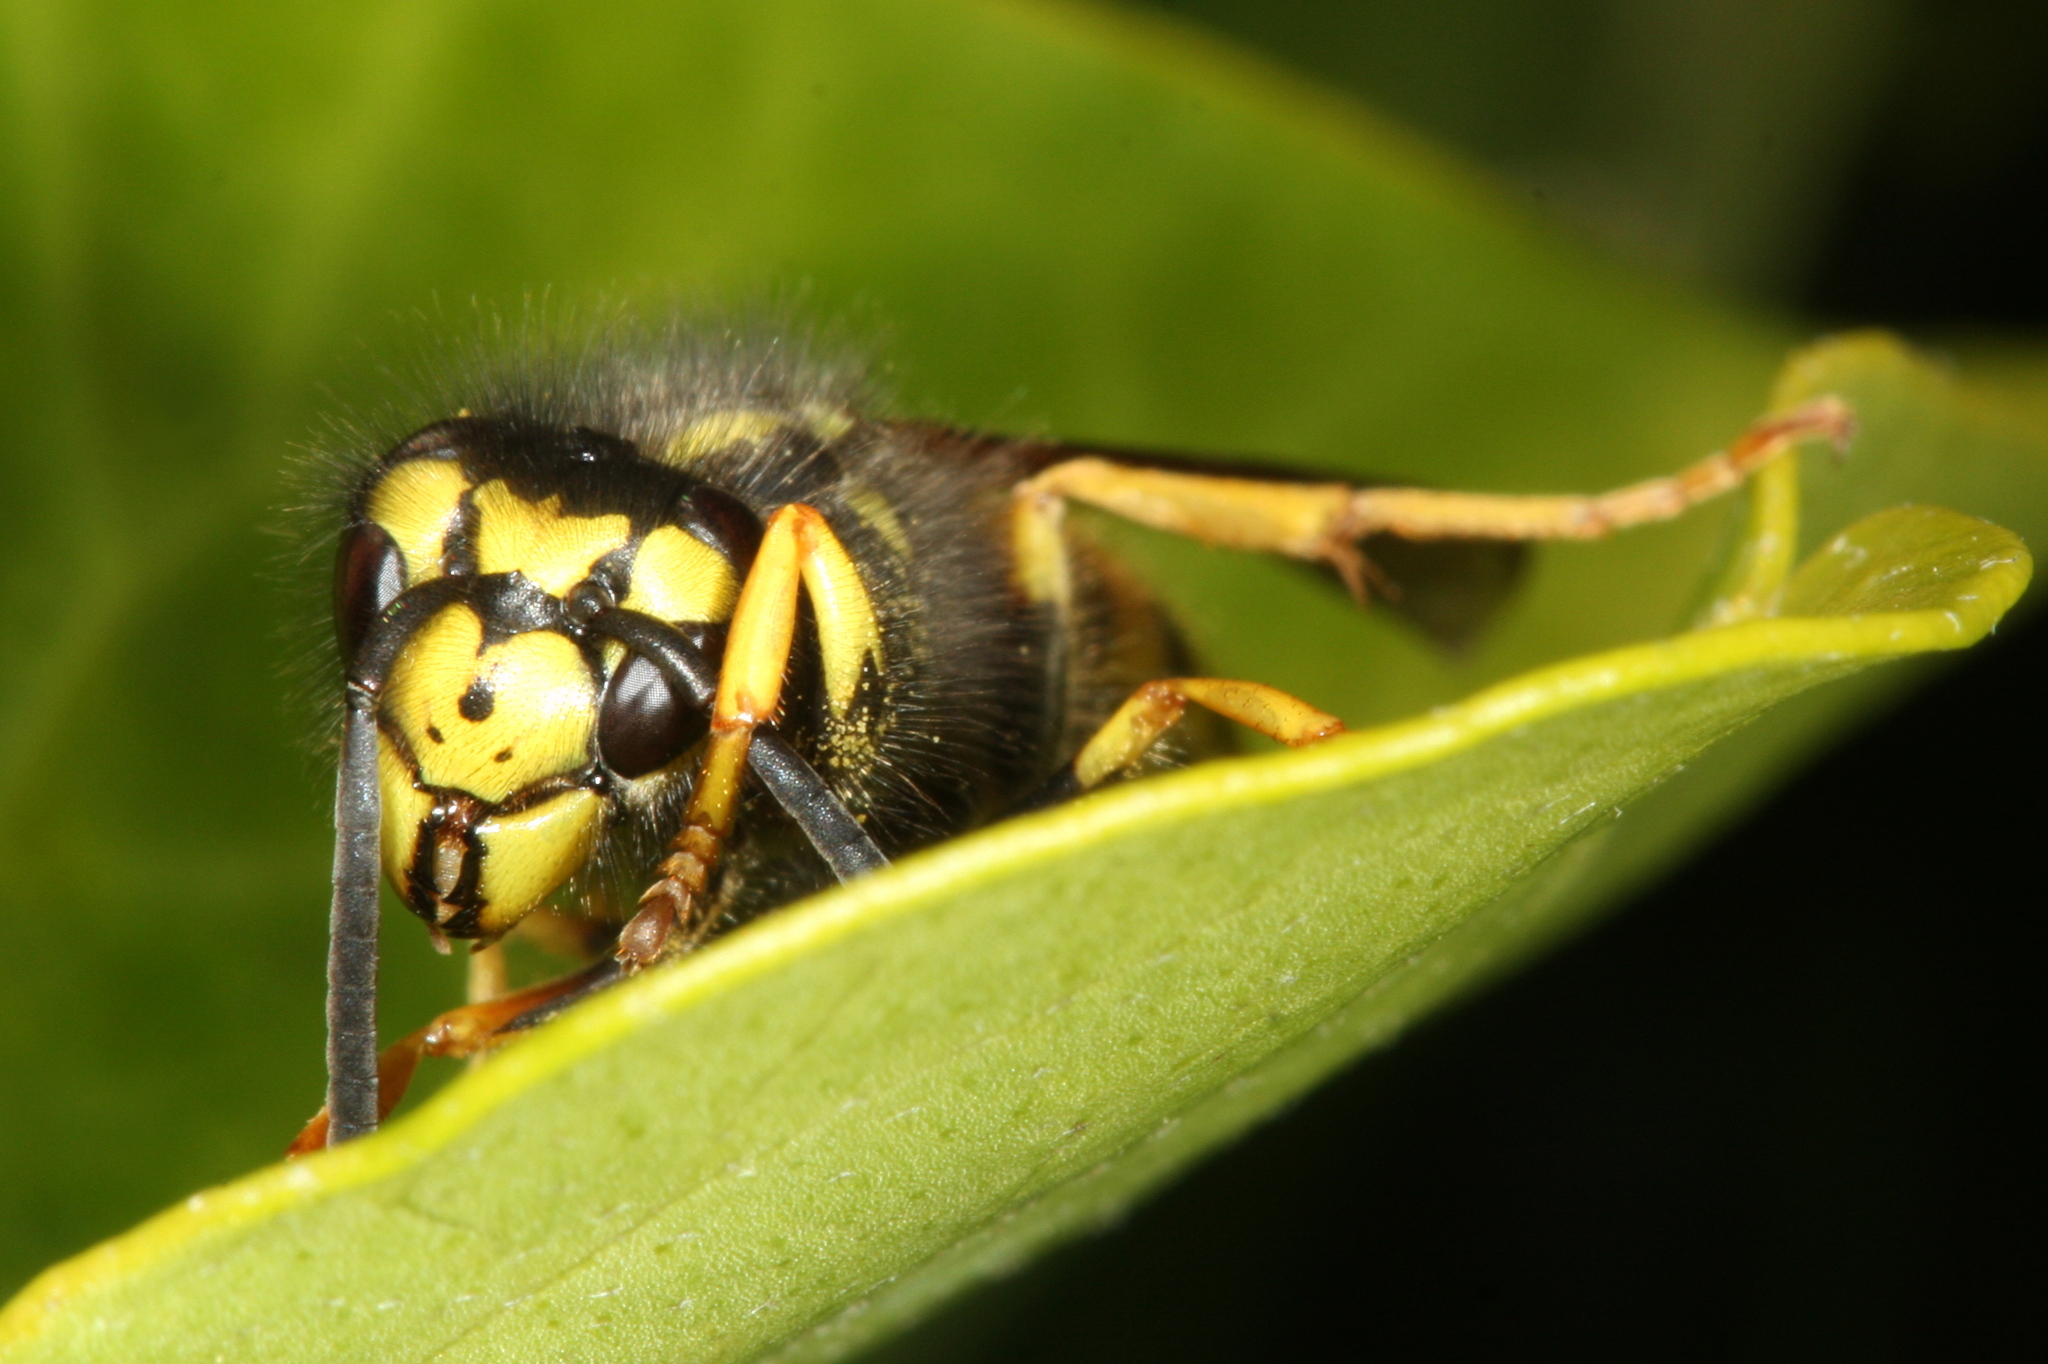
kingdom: Animalia
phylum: Arthropoda
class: Insecta
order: Hymenoptera
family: Vespidae
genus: Vespula
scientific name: Vespula germanica
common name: German wasp
